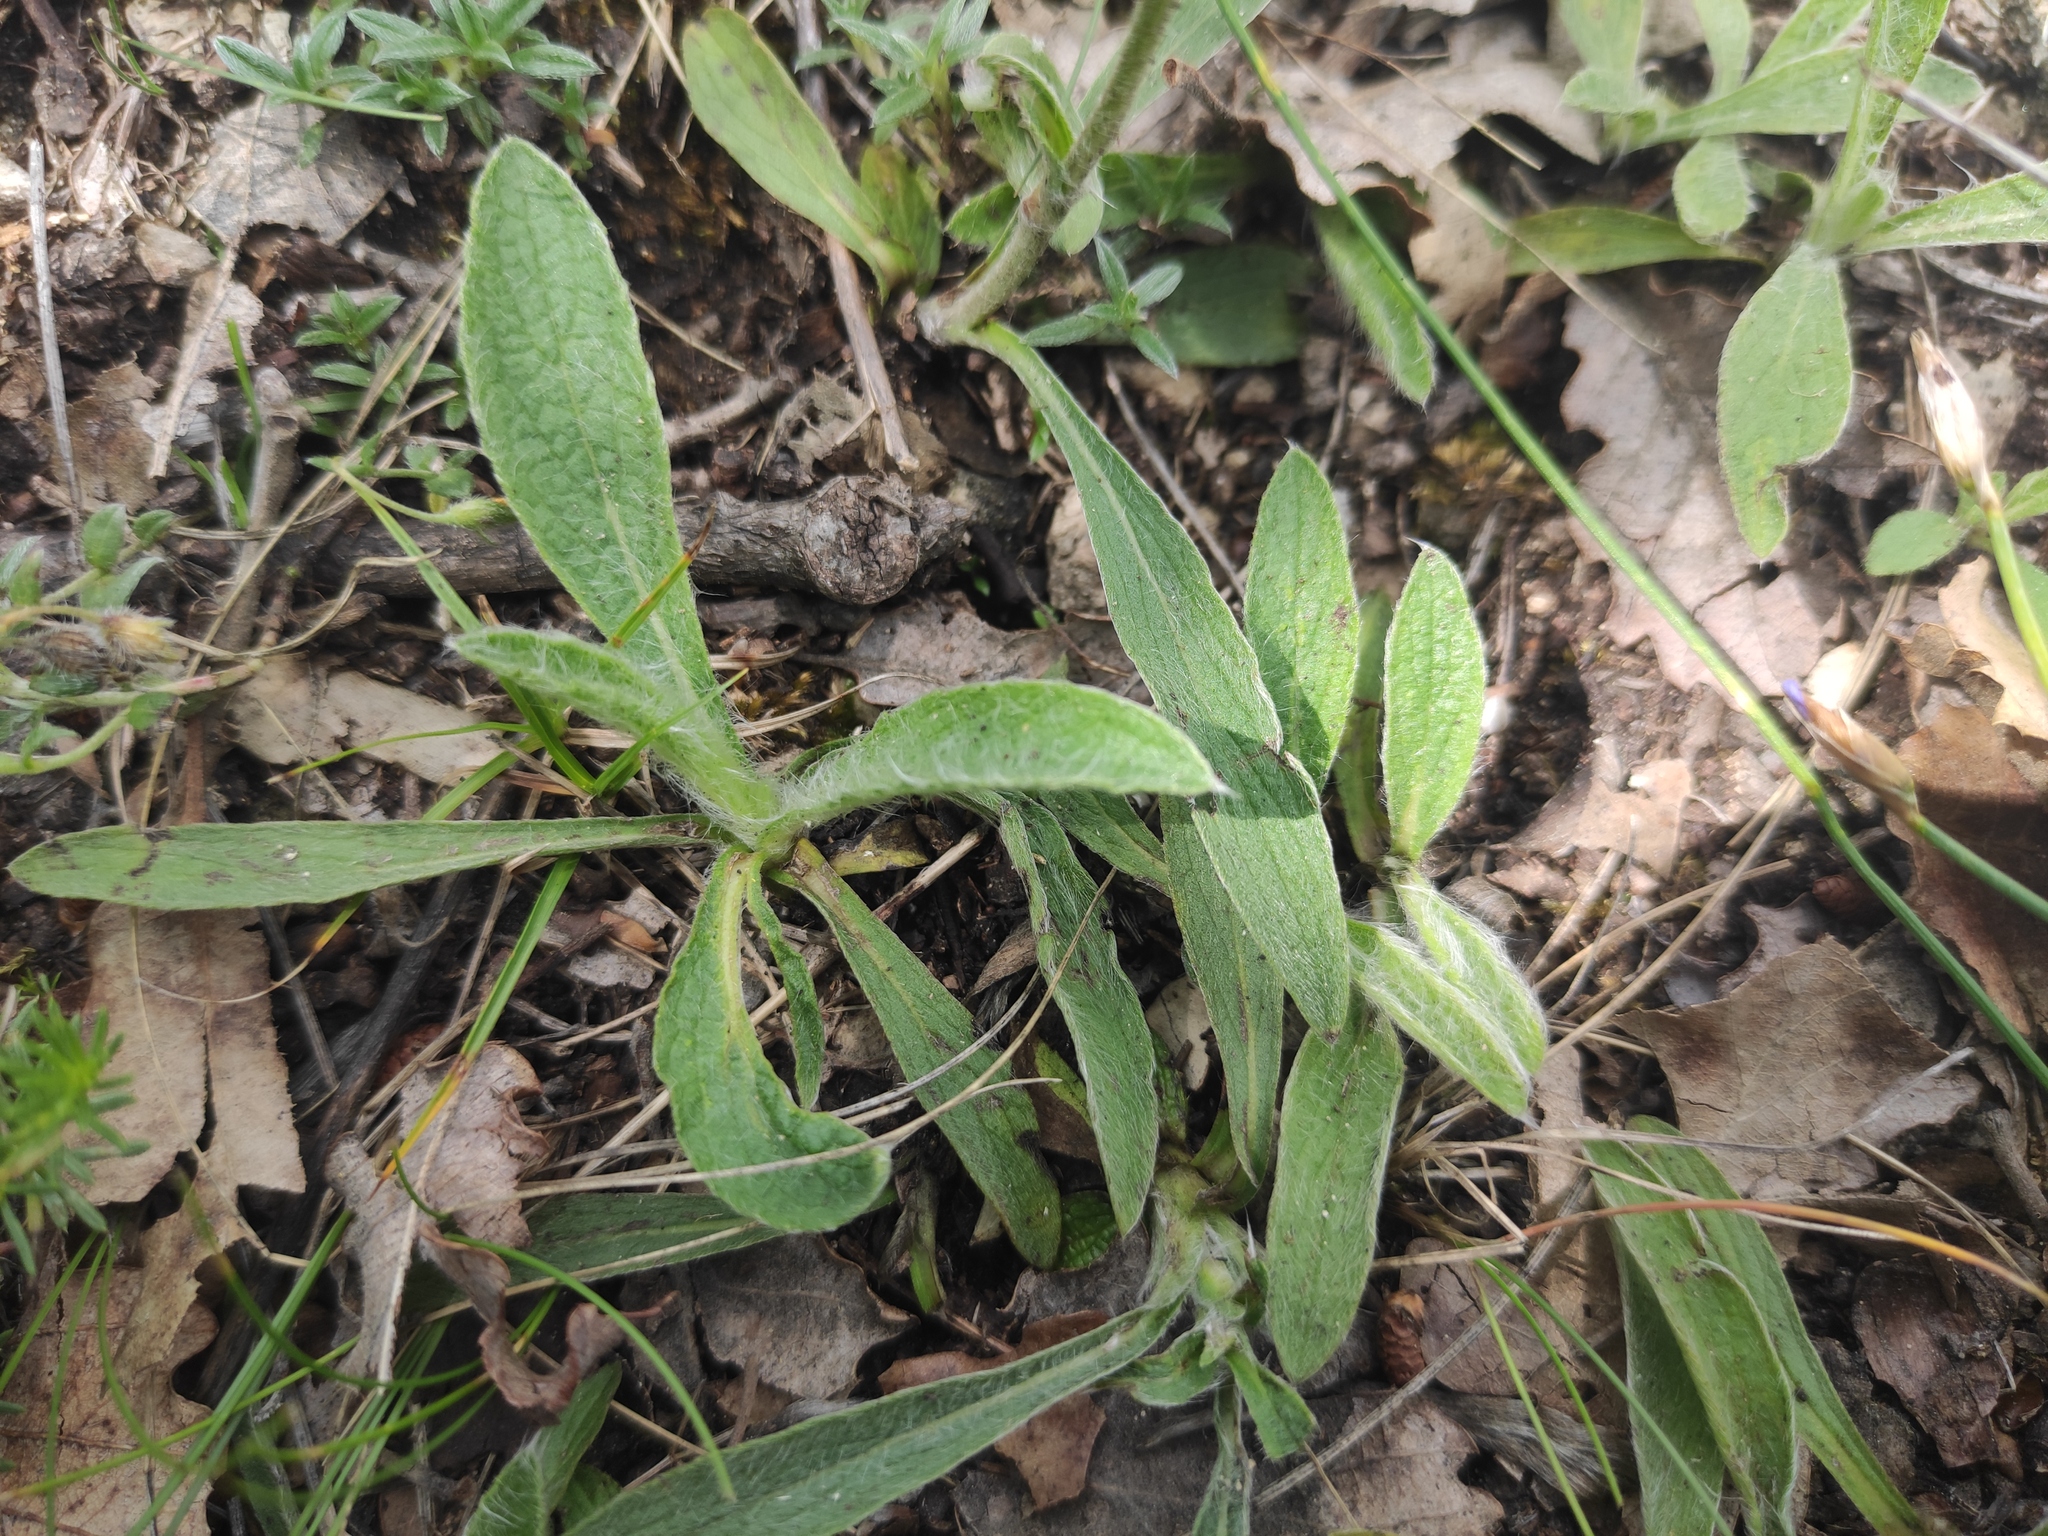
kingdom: Plantae
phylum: Tracheophyta
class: Magnoliopsida
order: Asterales
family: Asteraceae
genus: Pentanema
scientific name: Pentanema montanum
